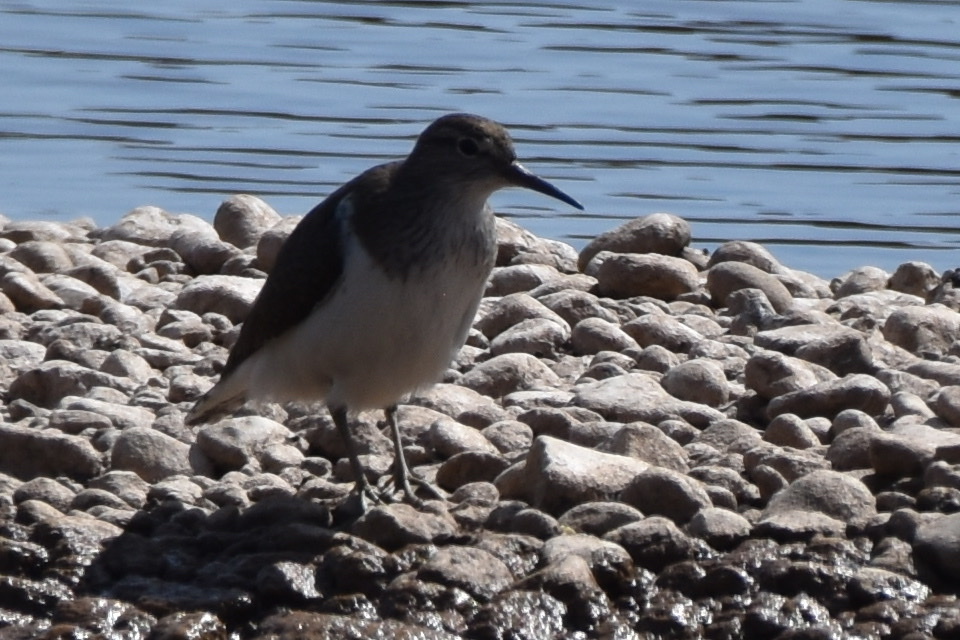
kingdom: Animalia
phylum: Chordata
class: Aves
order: Charadriiformes
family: Scolopacidae
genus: Actitis
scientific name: Actitis hypoleucos
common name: Common sandpiper
